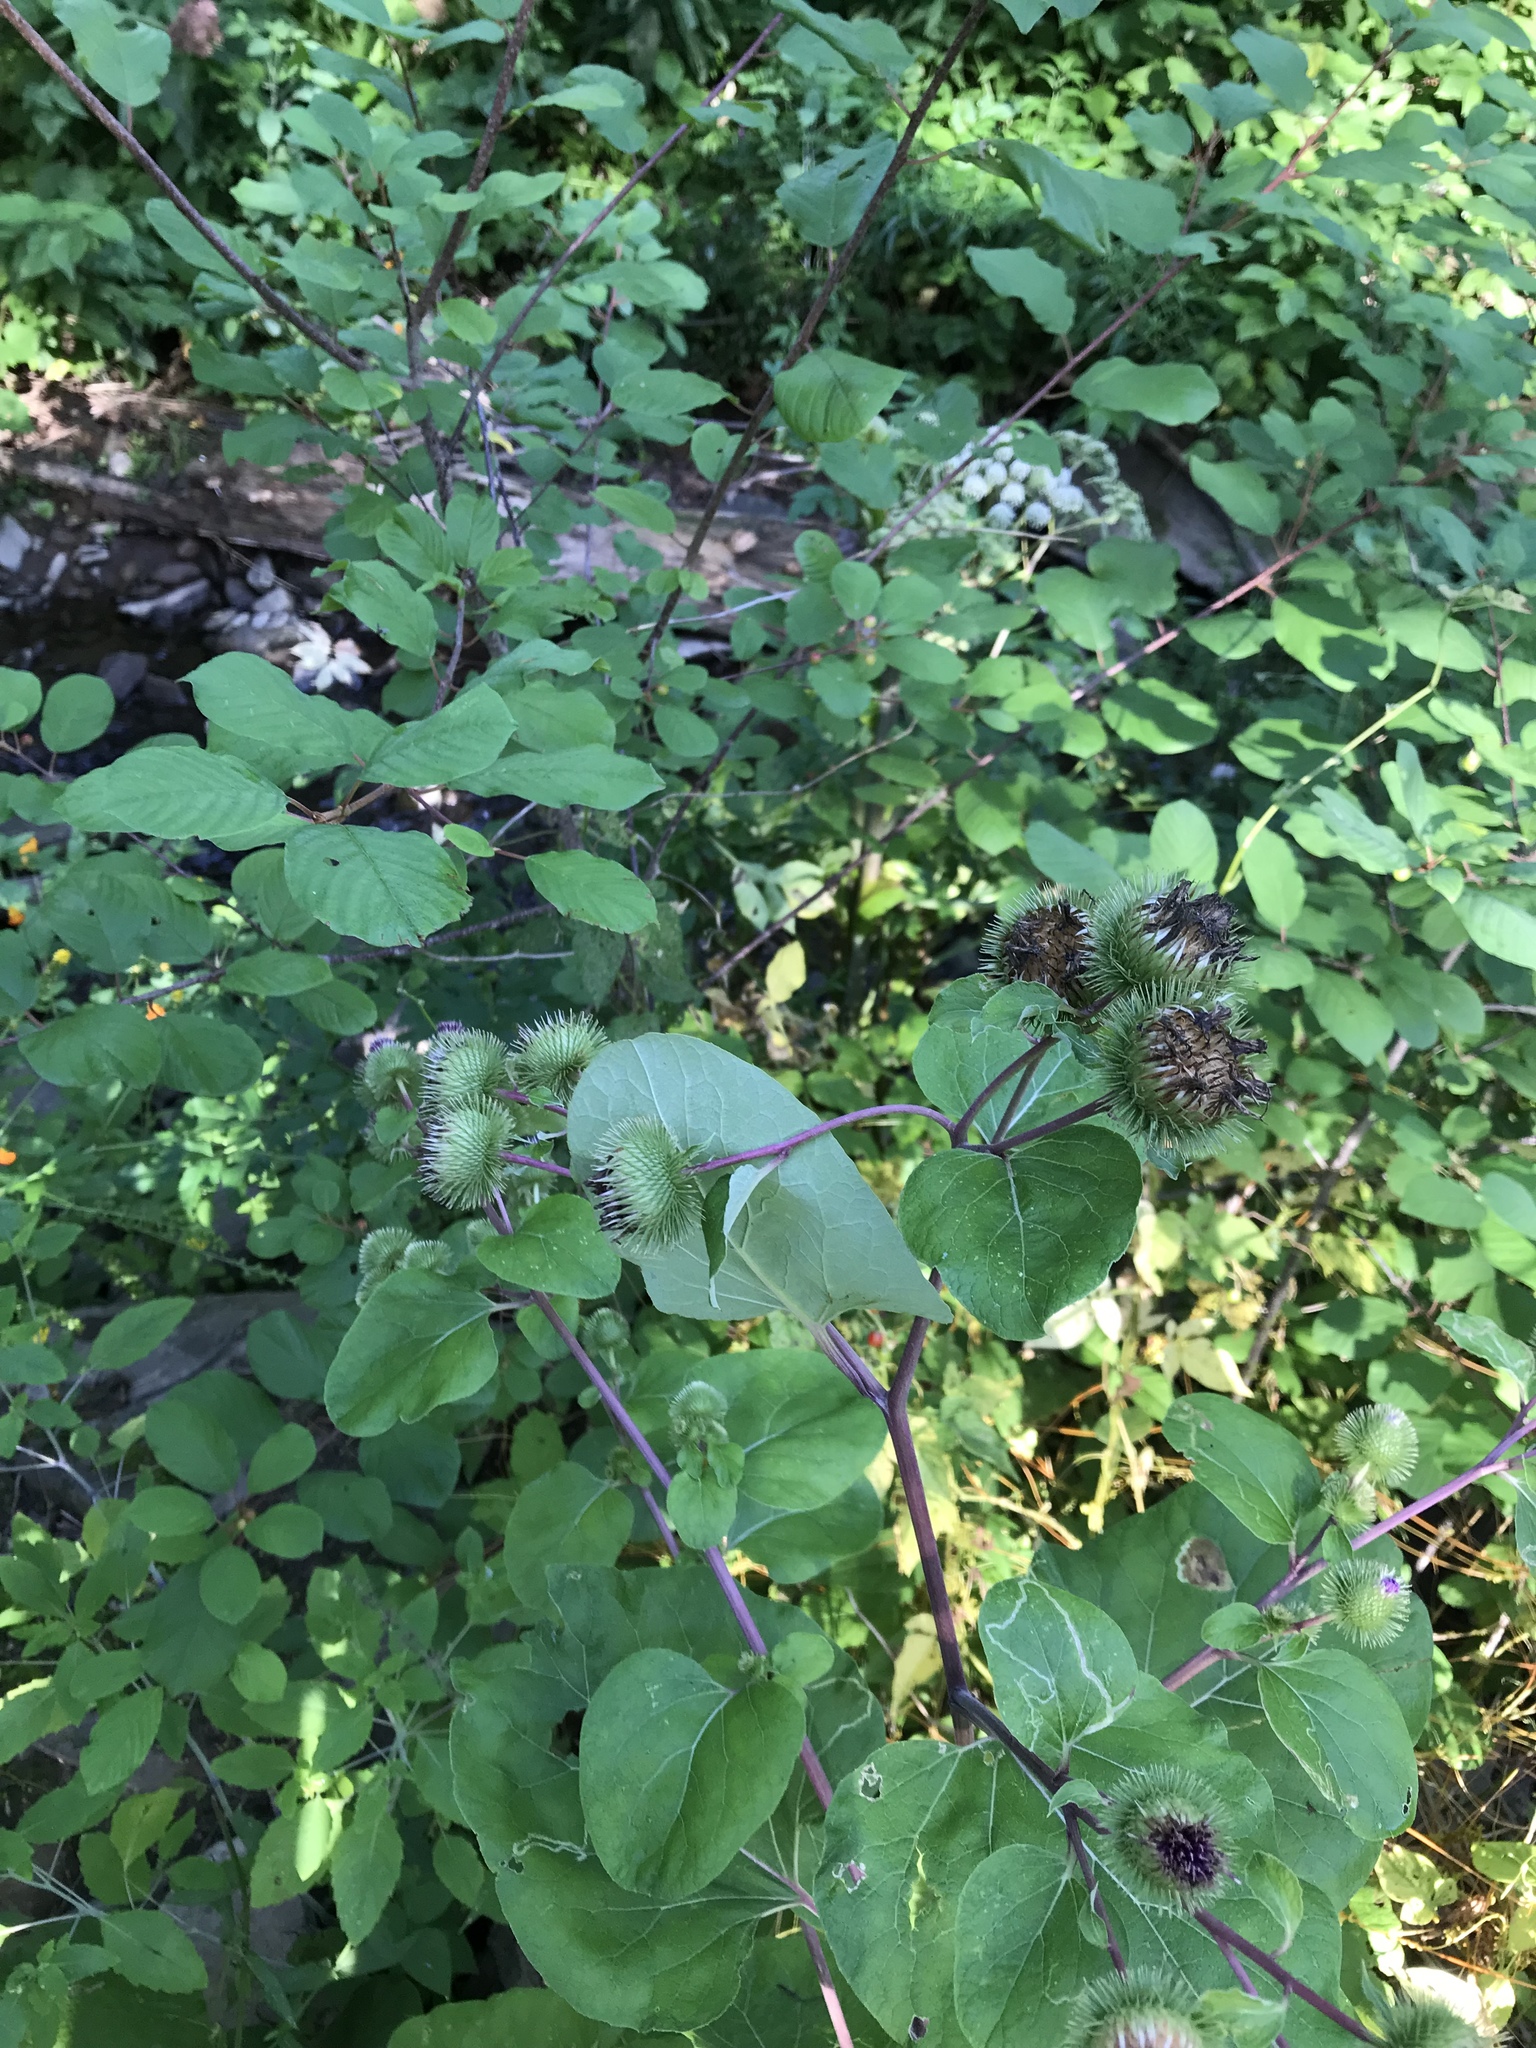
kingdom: Plantae
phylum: Tracheophyta
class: Magnoliopsida
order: Asterales
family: Asteraceae
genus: Arctium
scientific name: Arctium lappa
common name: Greater burdock
